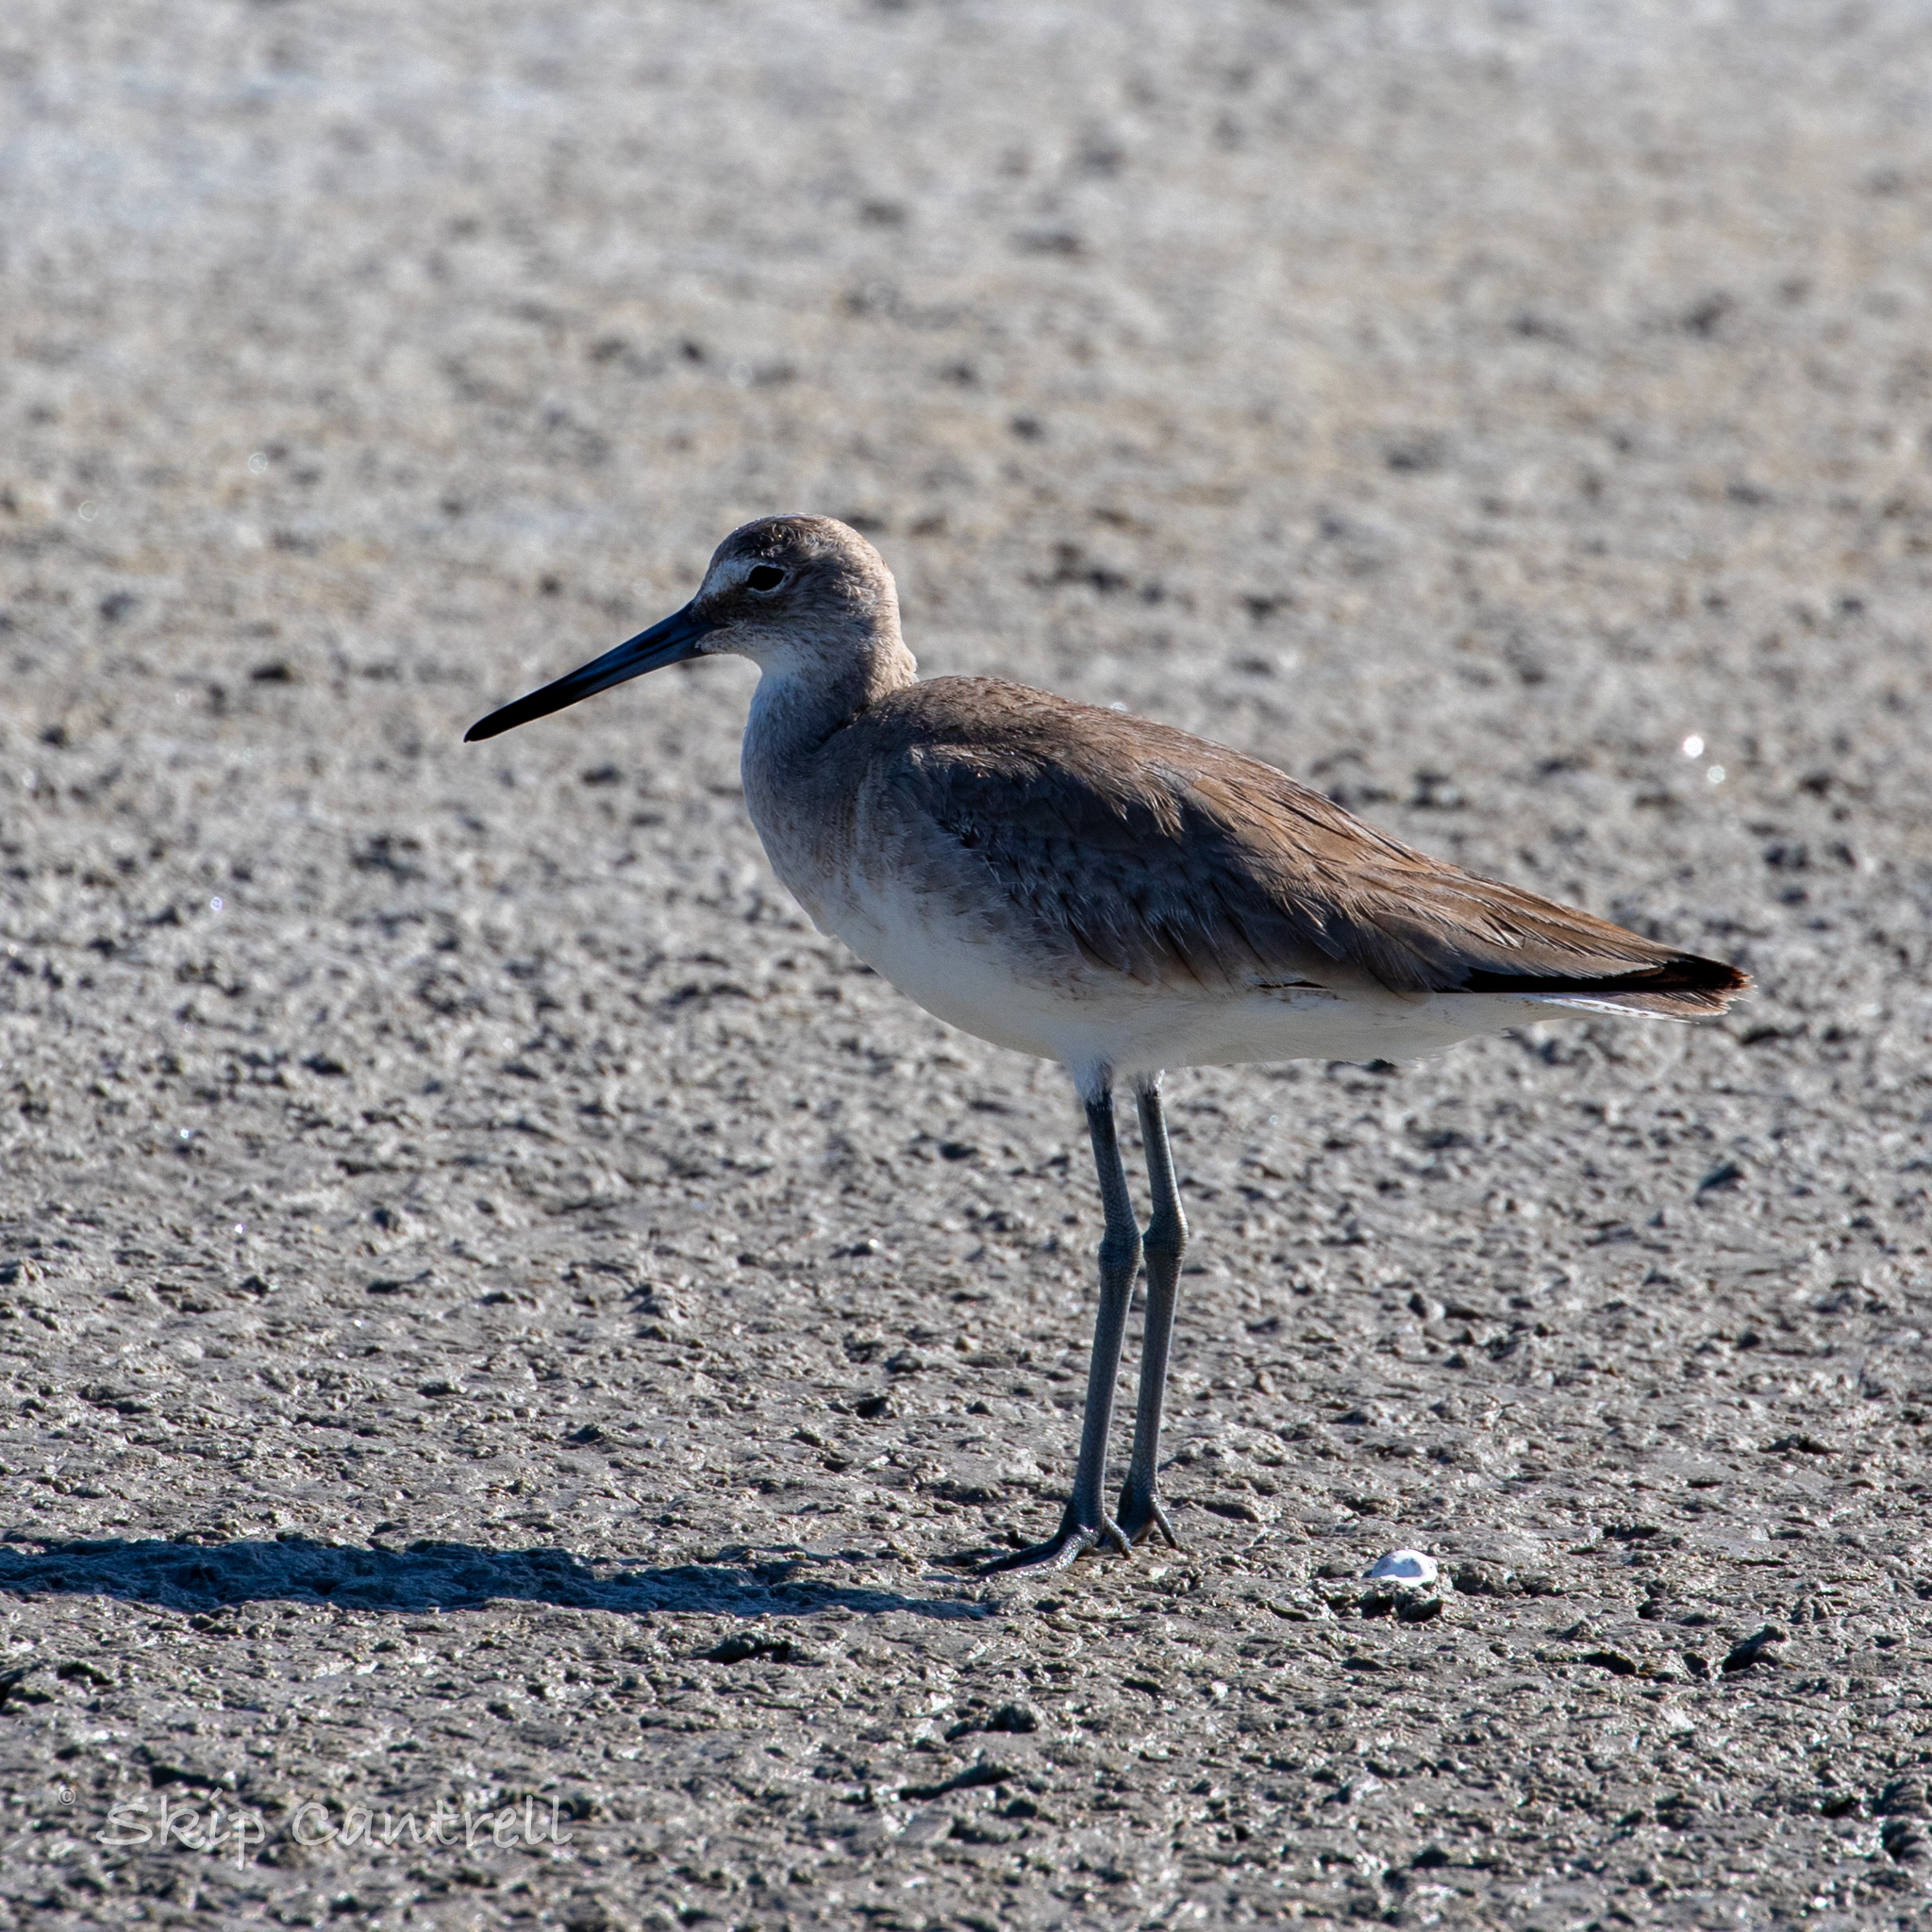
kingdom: Animalia
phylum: Chordata
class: Aves
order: Charadriiformes
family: Scolopacidae
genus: Tringa
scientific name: Tringa semipalmata
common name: Willet
